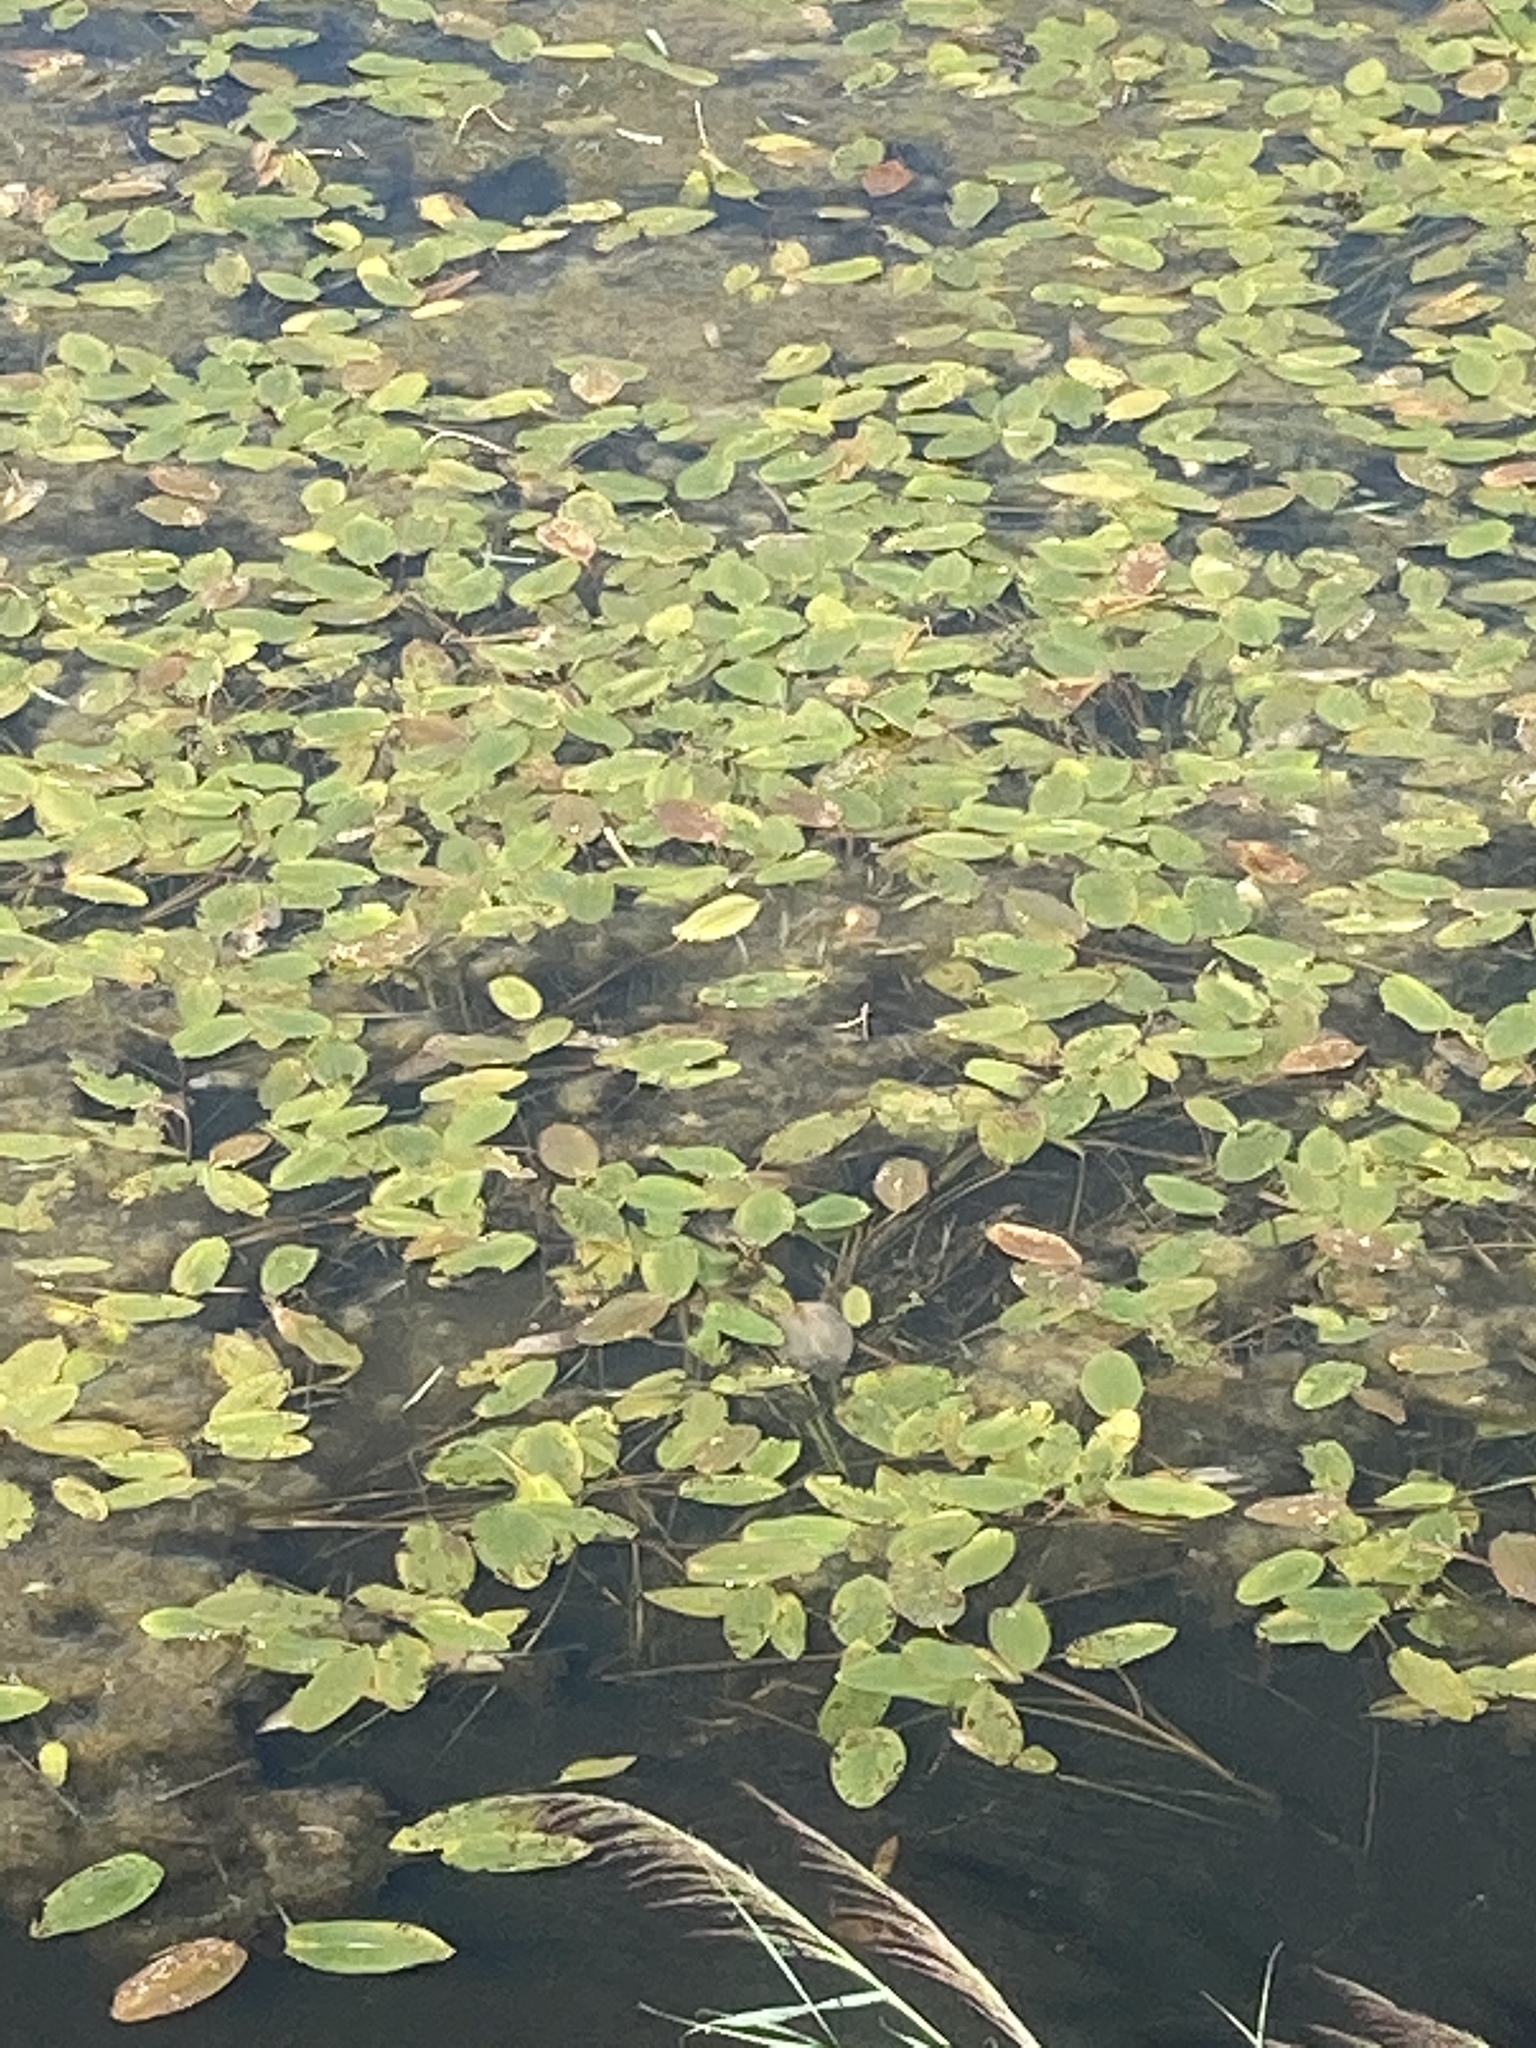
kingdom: Plantae
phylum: Tracheophyta
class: Liliopsida
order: Alismatales
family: Potamogetonaceae
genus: Potamogeton
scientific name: Potamogeton natans
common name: Broad-leaved pondweed
